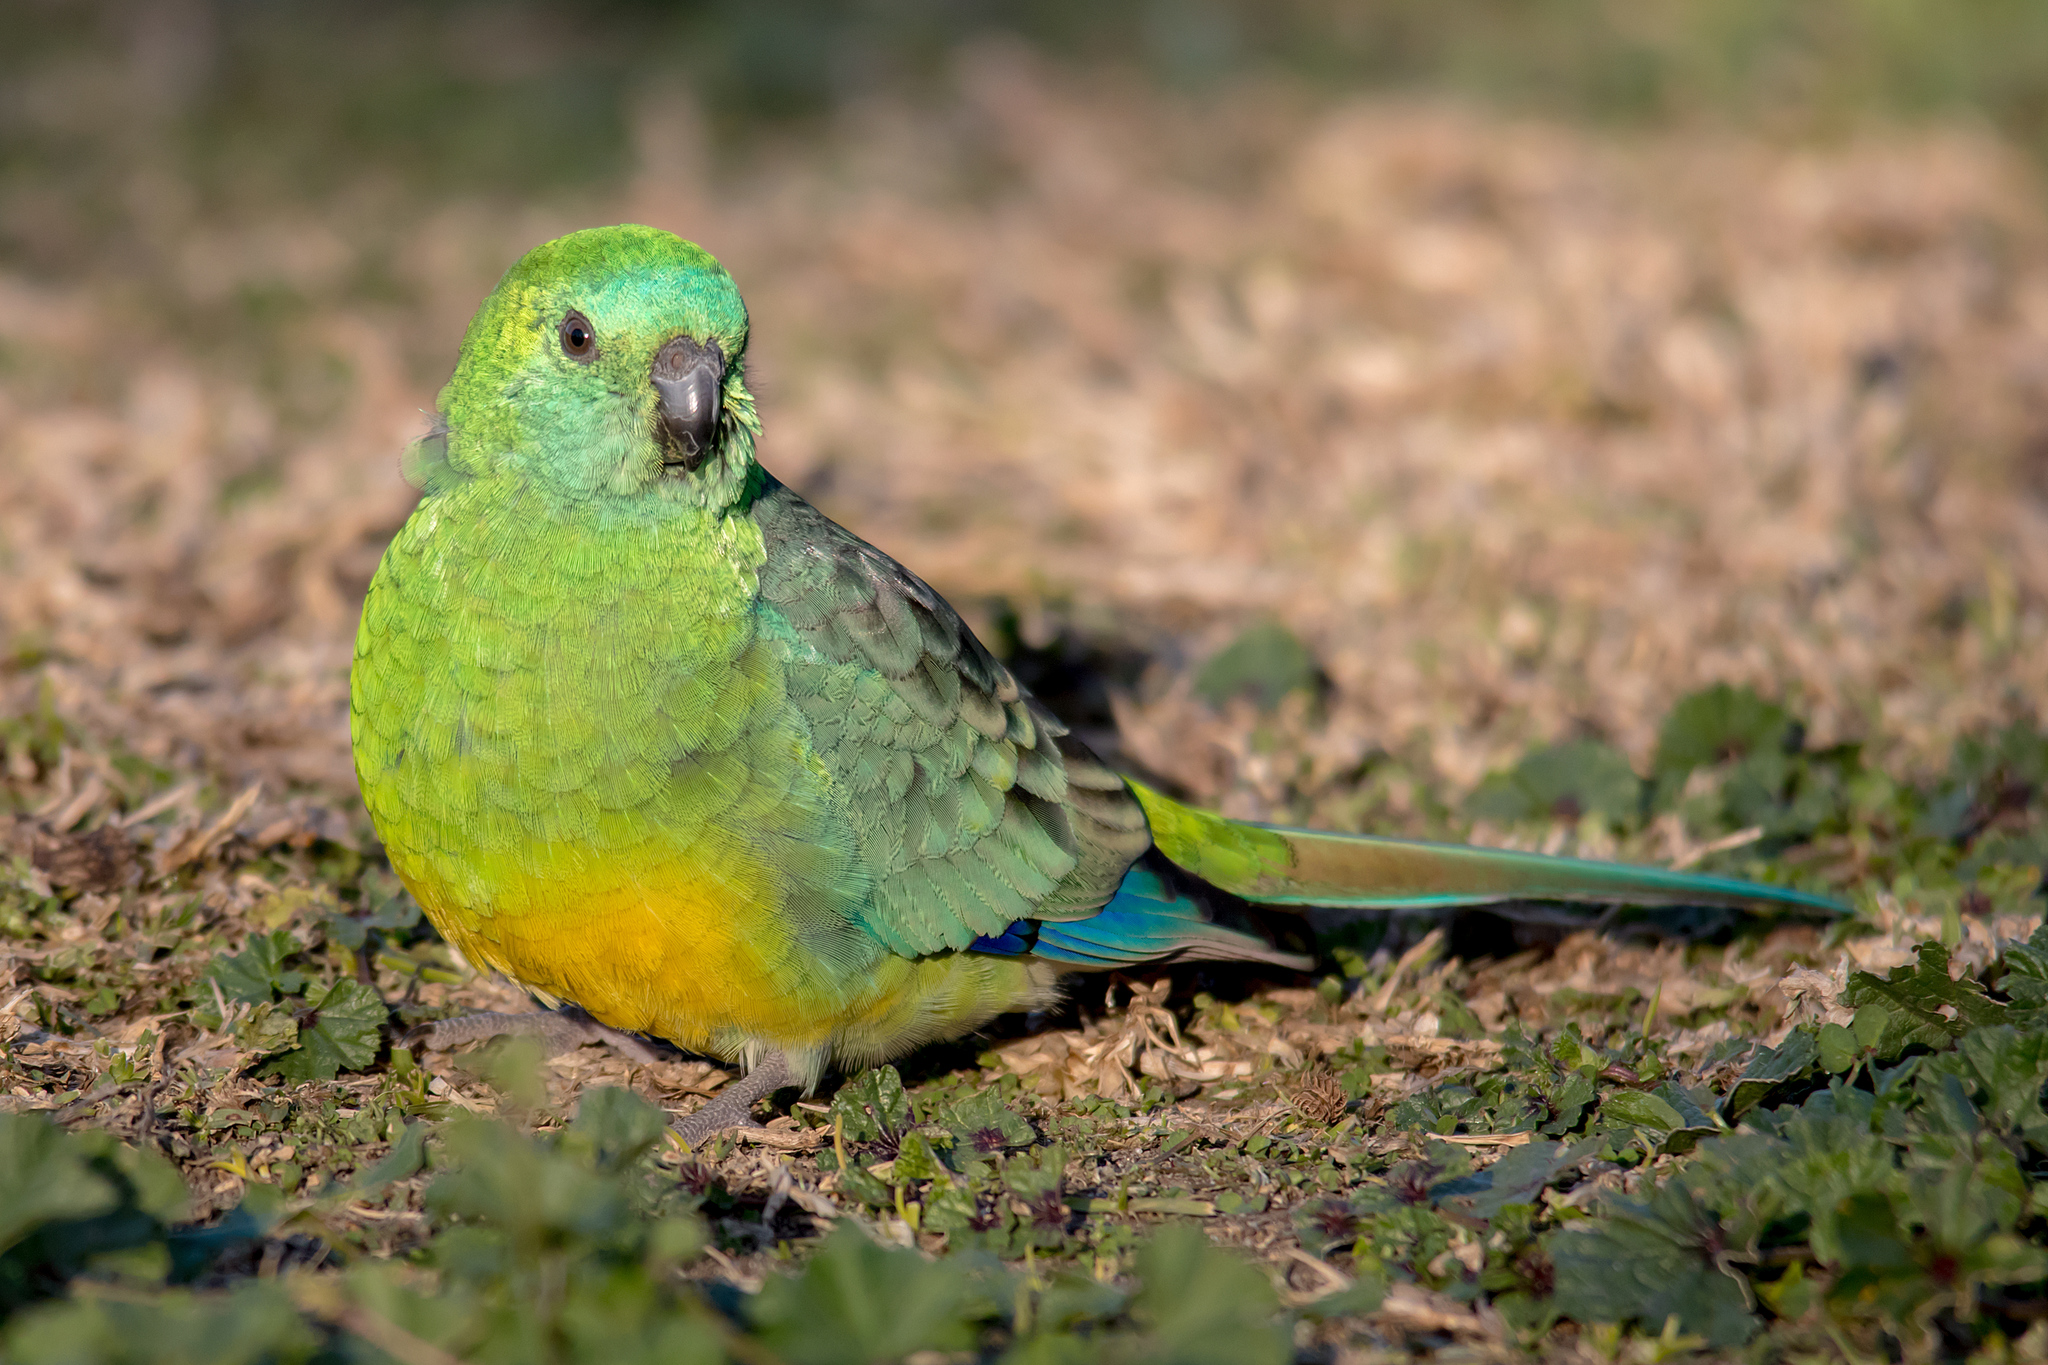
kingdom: Animalia
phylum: Chordata
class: Aves
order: Psittaciformes
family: Psittacidae
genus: Psephotus
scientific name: Psephotus haematonotus
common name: Red-rumped parrot
